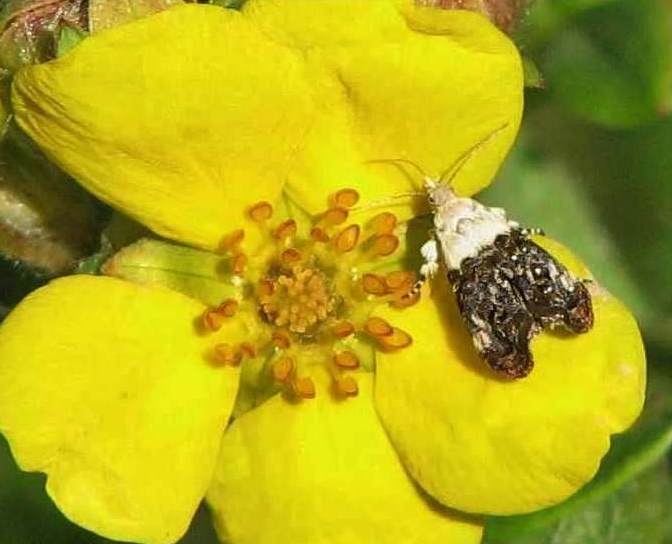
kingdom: Animalia
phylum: Arthropoda
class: Insecta
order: Lepidoptera
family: Choreutidae
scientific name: Choreutidae
